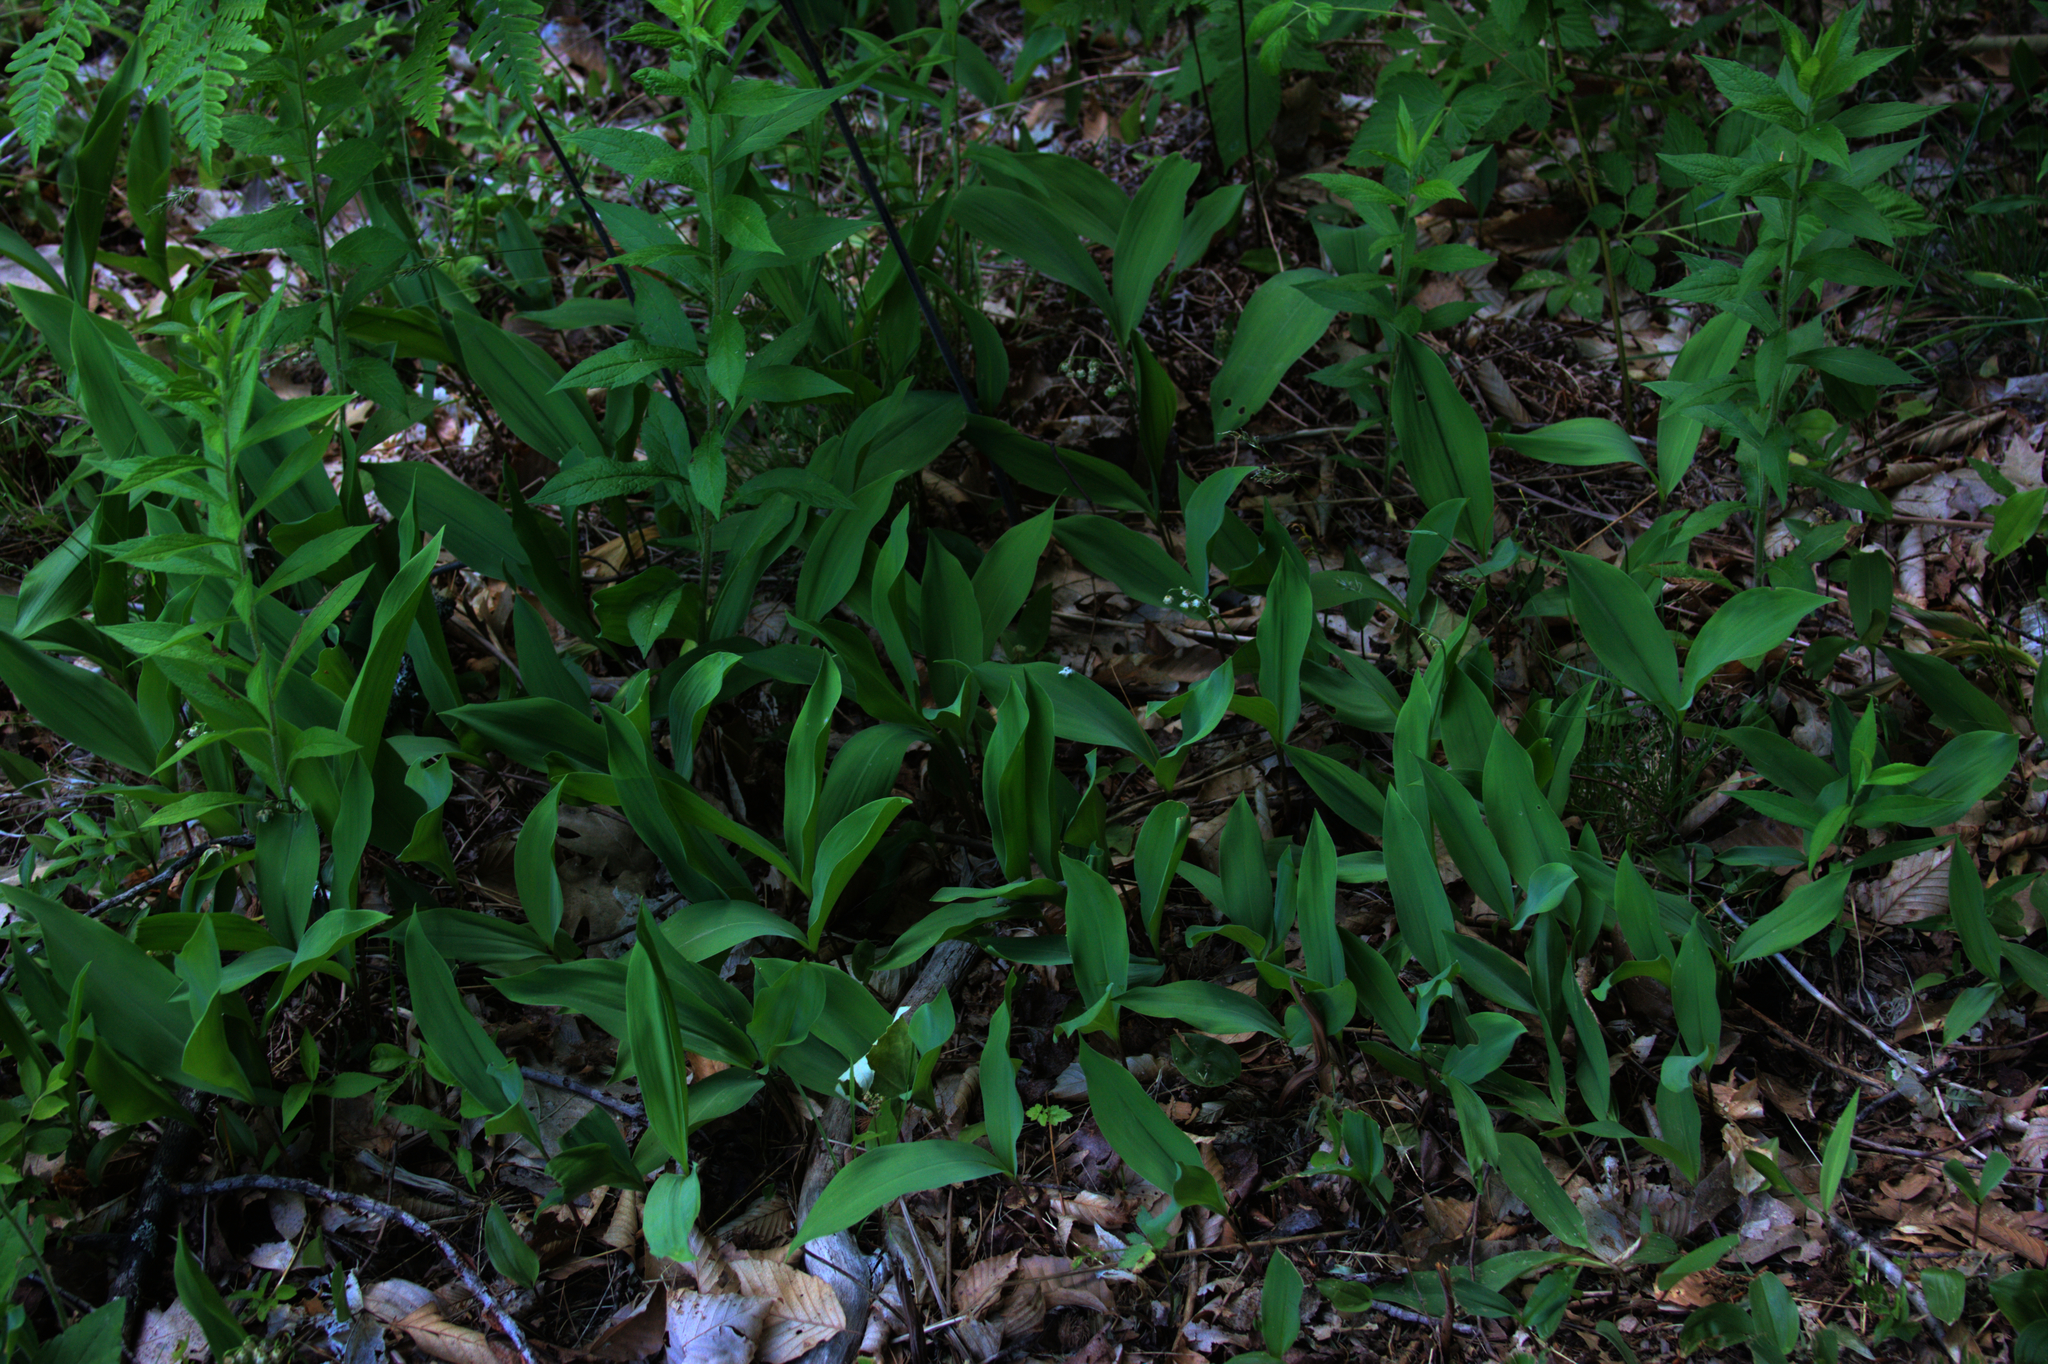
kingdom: Plantae
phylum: Tracheophyta
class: Liliopsida
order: Asparagales
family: Asparagaceae
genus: Convallaria
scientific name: Convallaria majalis
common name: Lily-of-the-valley
